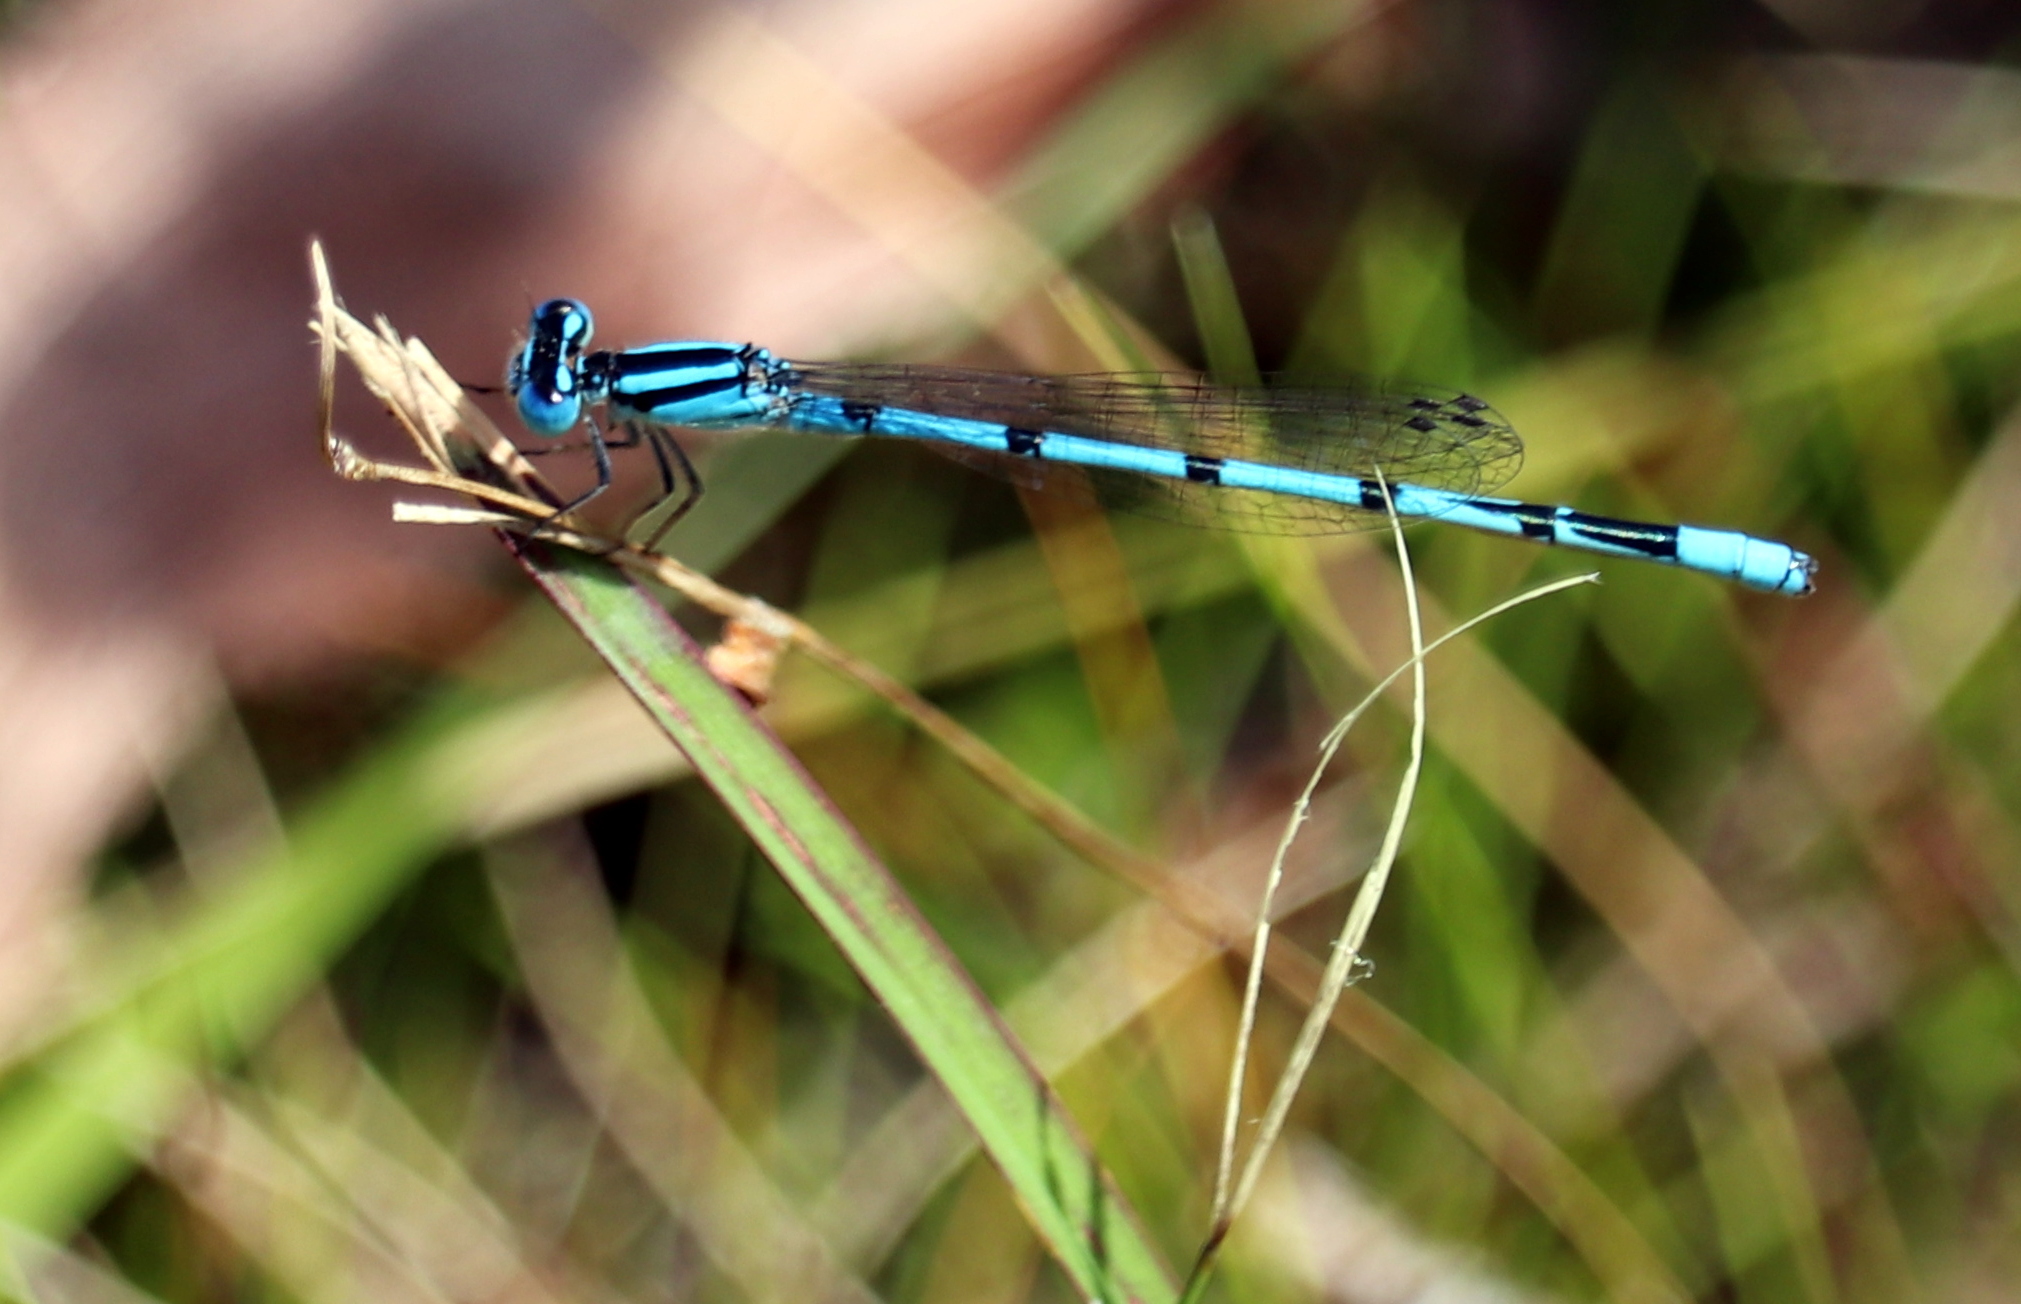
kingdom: Animalia
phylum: Arthropoda
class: Insecta
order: Odonata
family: Coenagrionidae
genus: Enallagma
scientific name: Enallagma doubledayi
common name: Atlantic bluet
